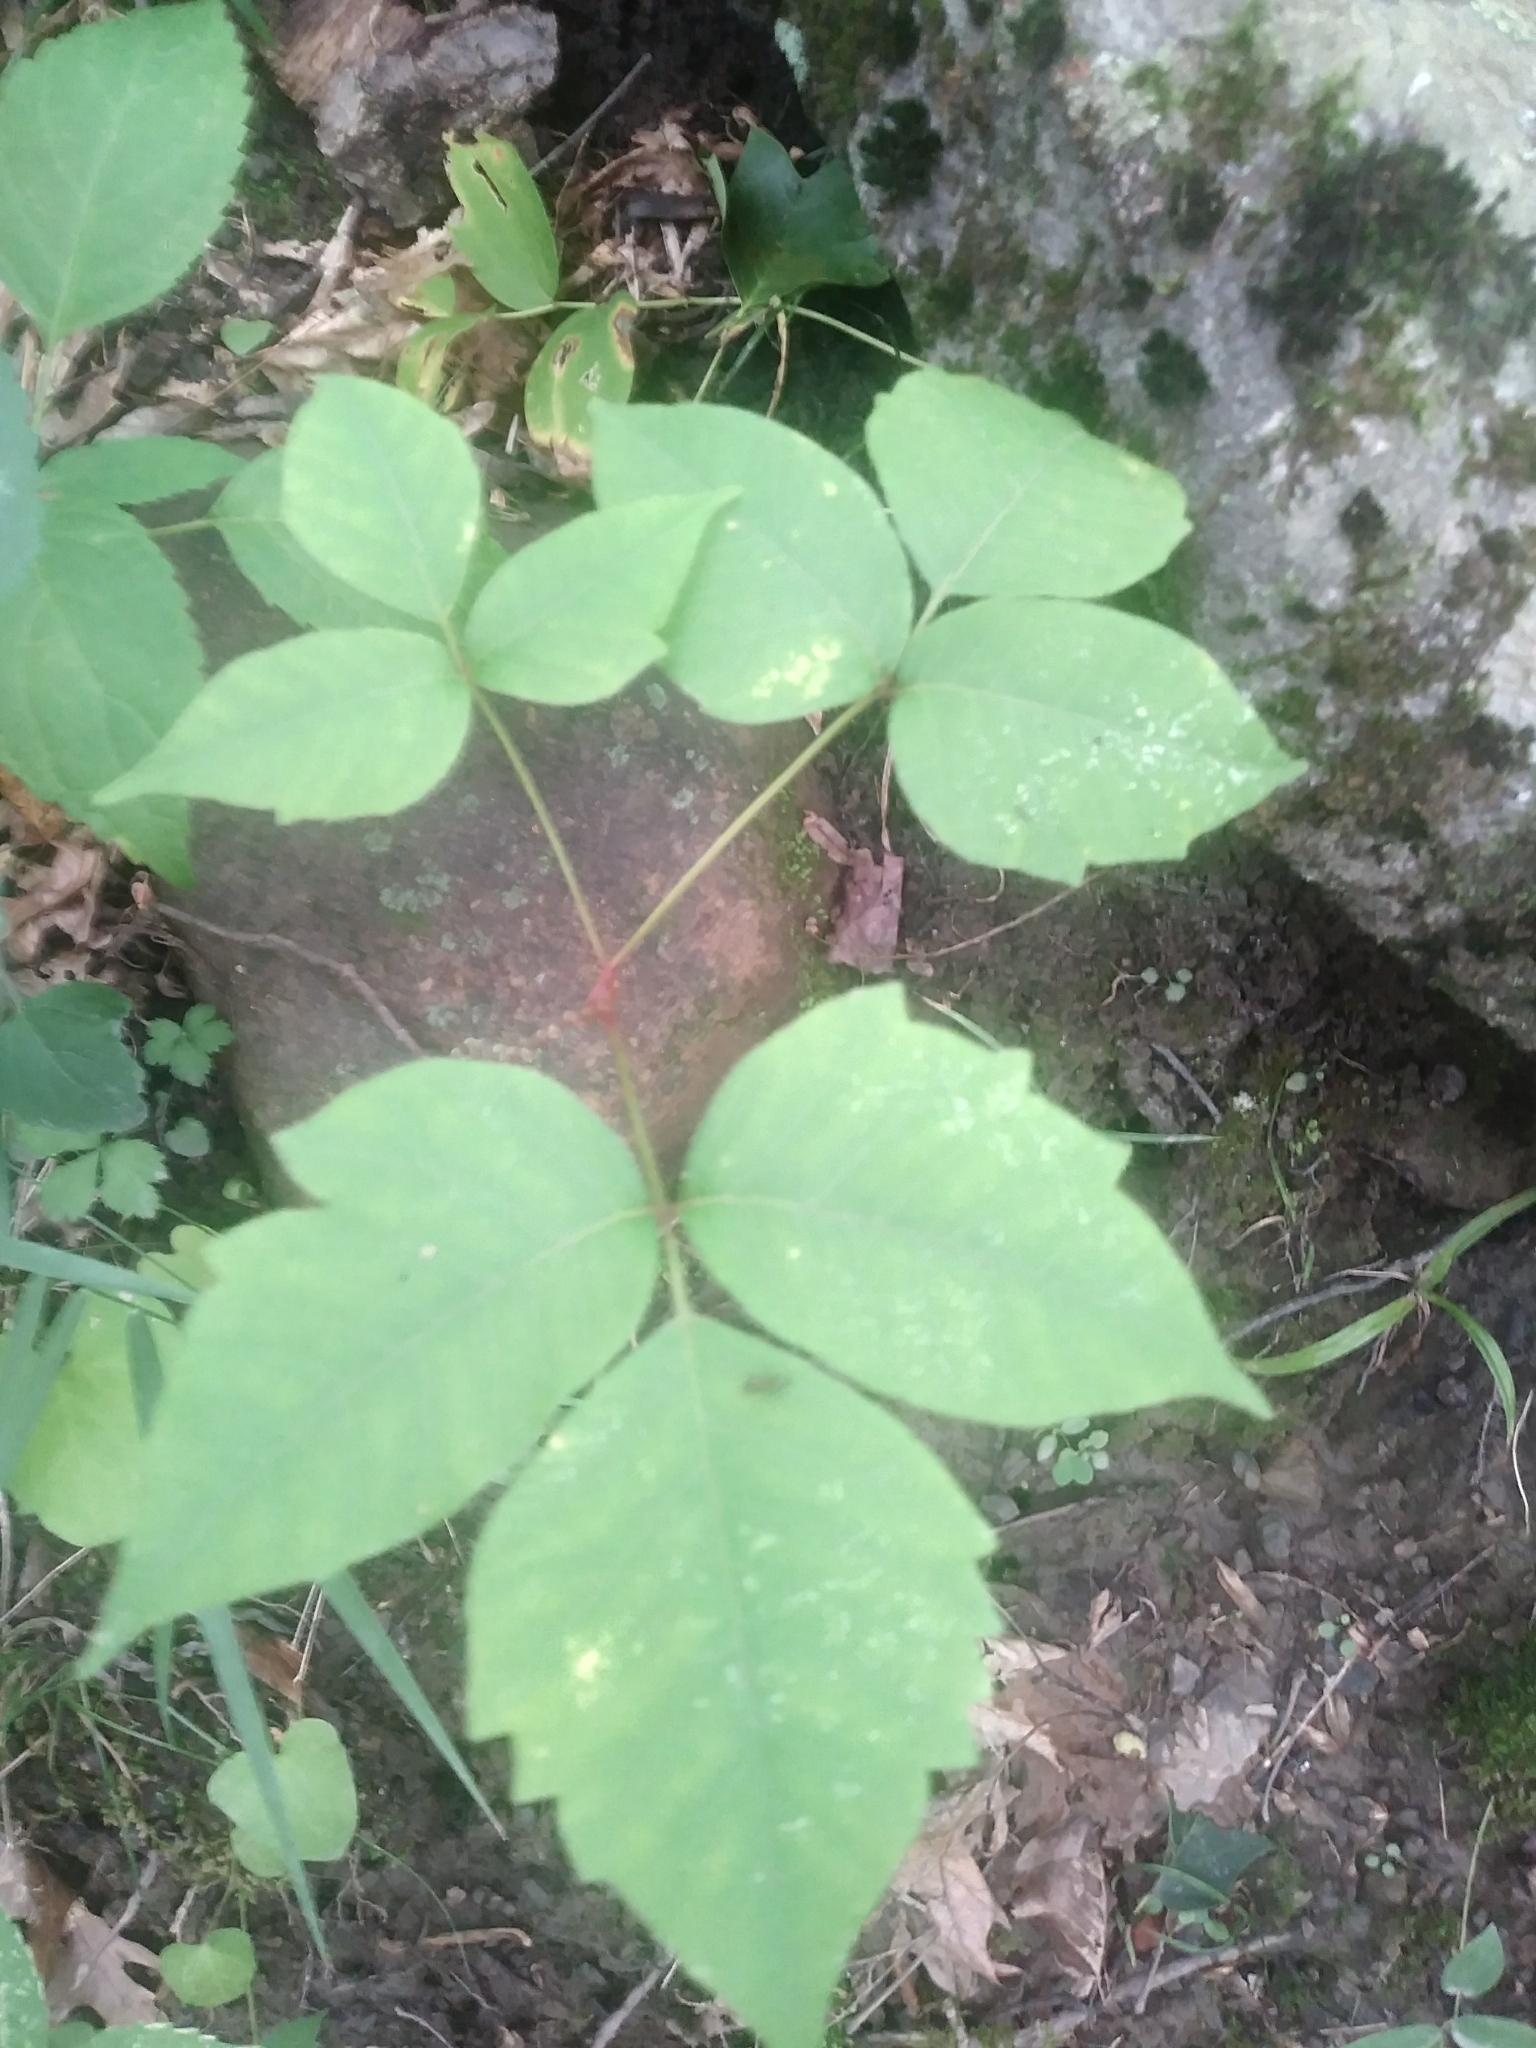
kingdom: Plantae
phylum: Tracheophyta
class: Magnoliopsida
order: Sapindales
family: Anacardiaceae
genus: Toxicodendron
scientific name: Toxicodendron radicans
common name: Poison ivy
